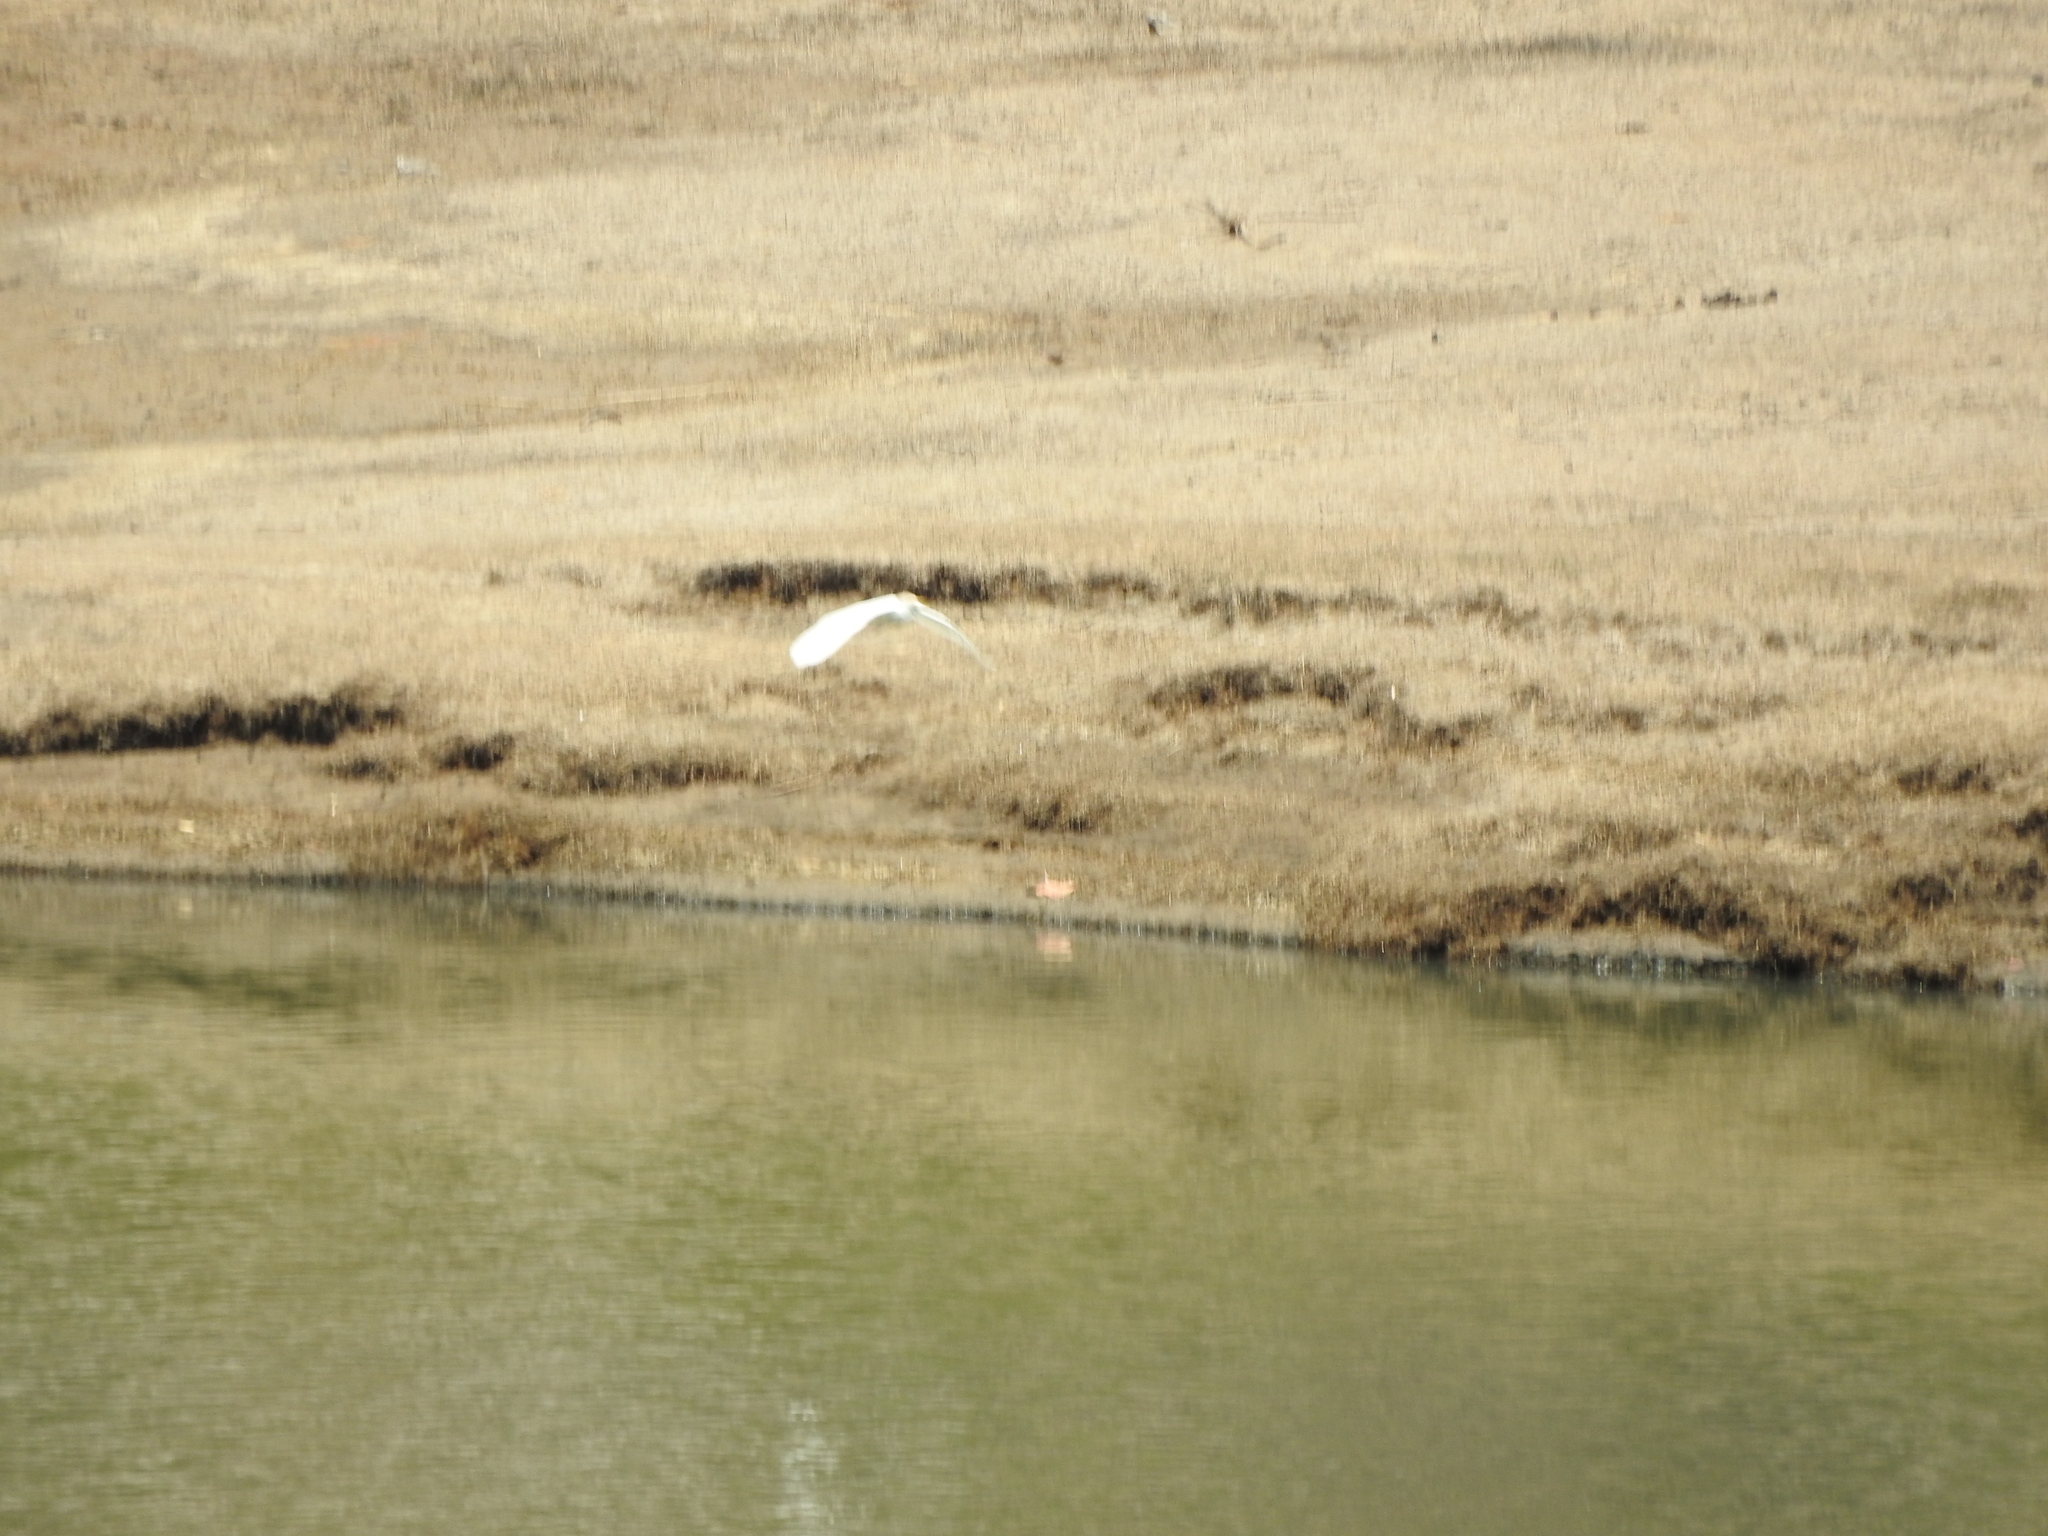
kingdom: Animalia
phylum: Chordata
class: Aves
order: Pelecaniformes
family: Ardeidae
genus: Ardea
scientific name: Ardea alba
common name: Great egret
